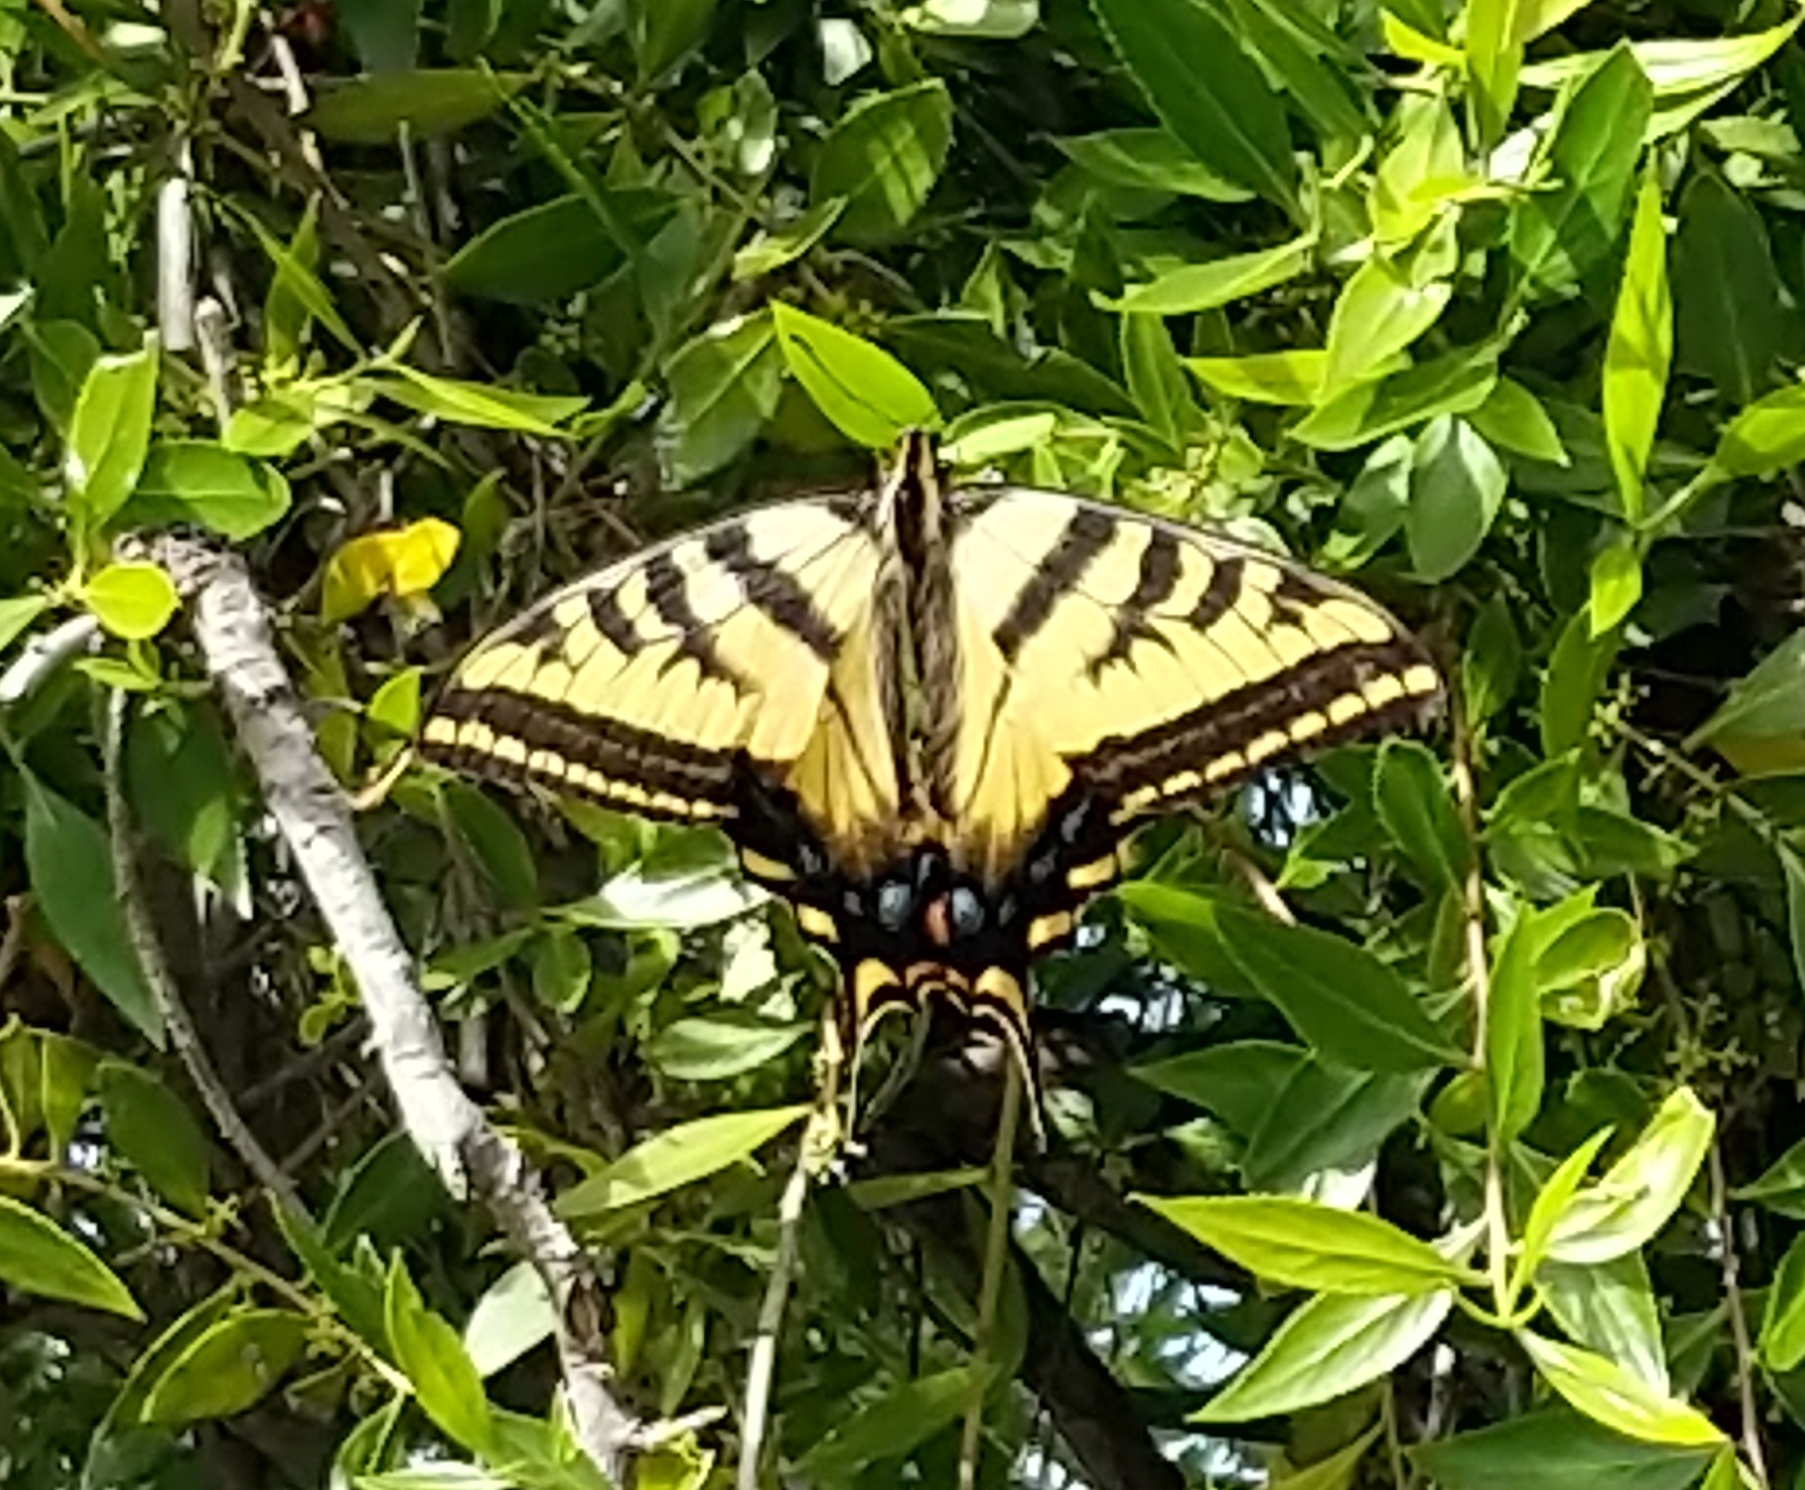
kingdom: Animalia
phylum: Arthropoda
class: Insecta
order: Lepidoptera
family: Papilionidae
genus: Papilio
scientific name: Papilio rutulus
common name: Western tiger swallowtail
